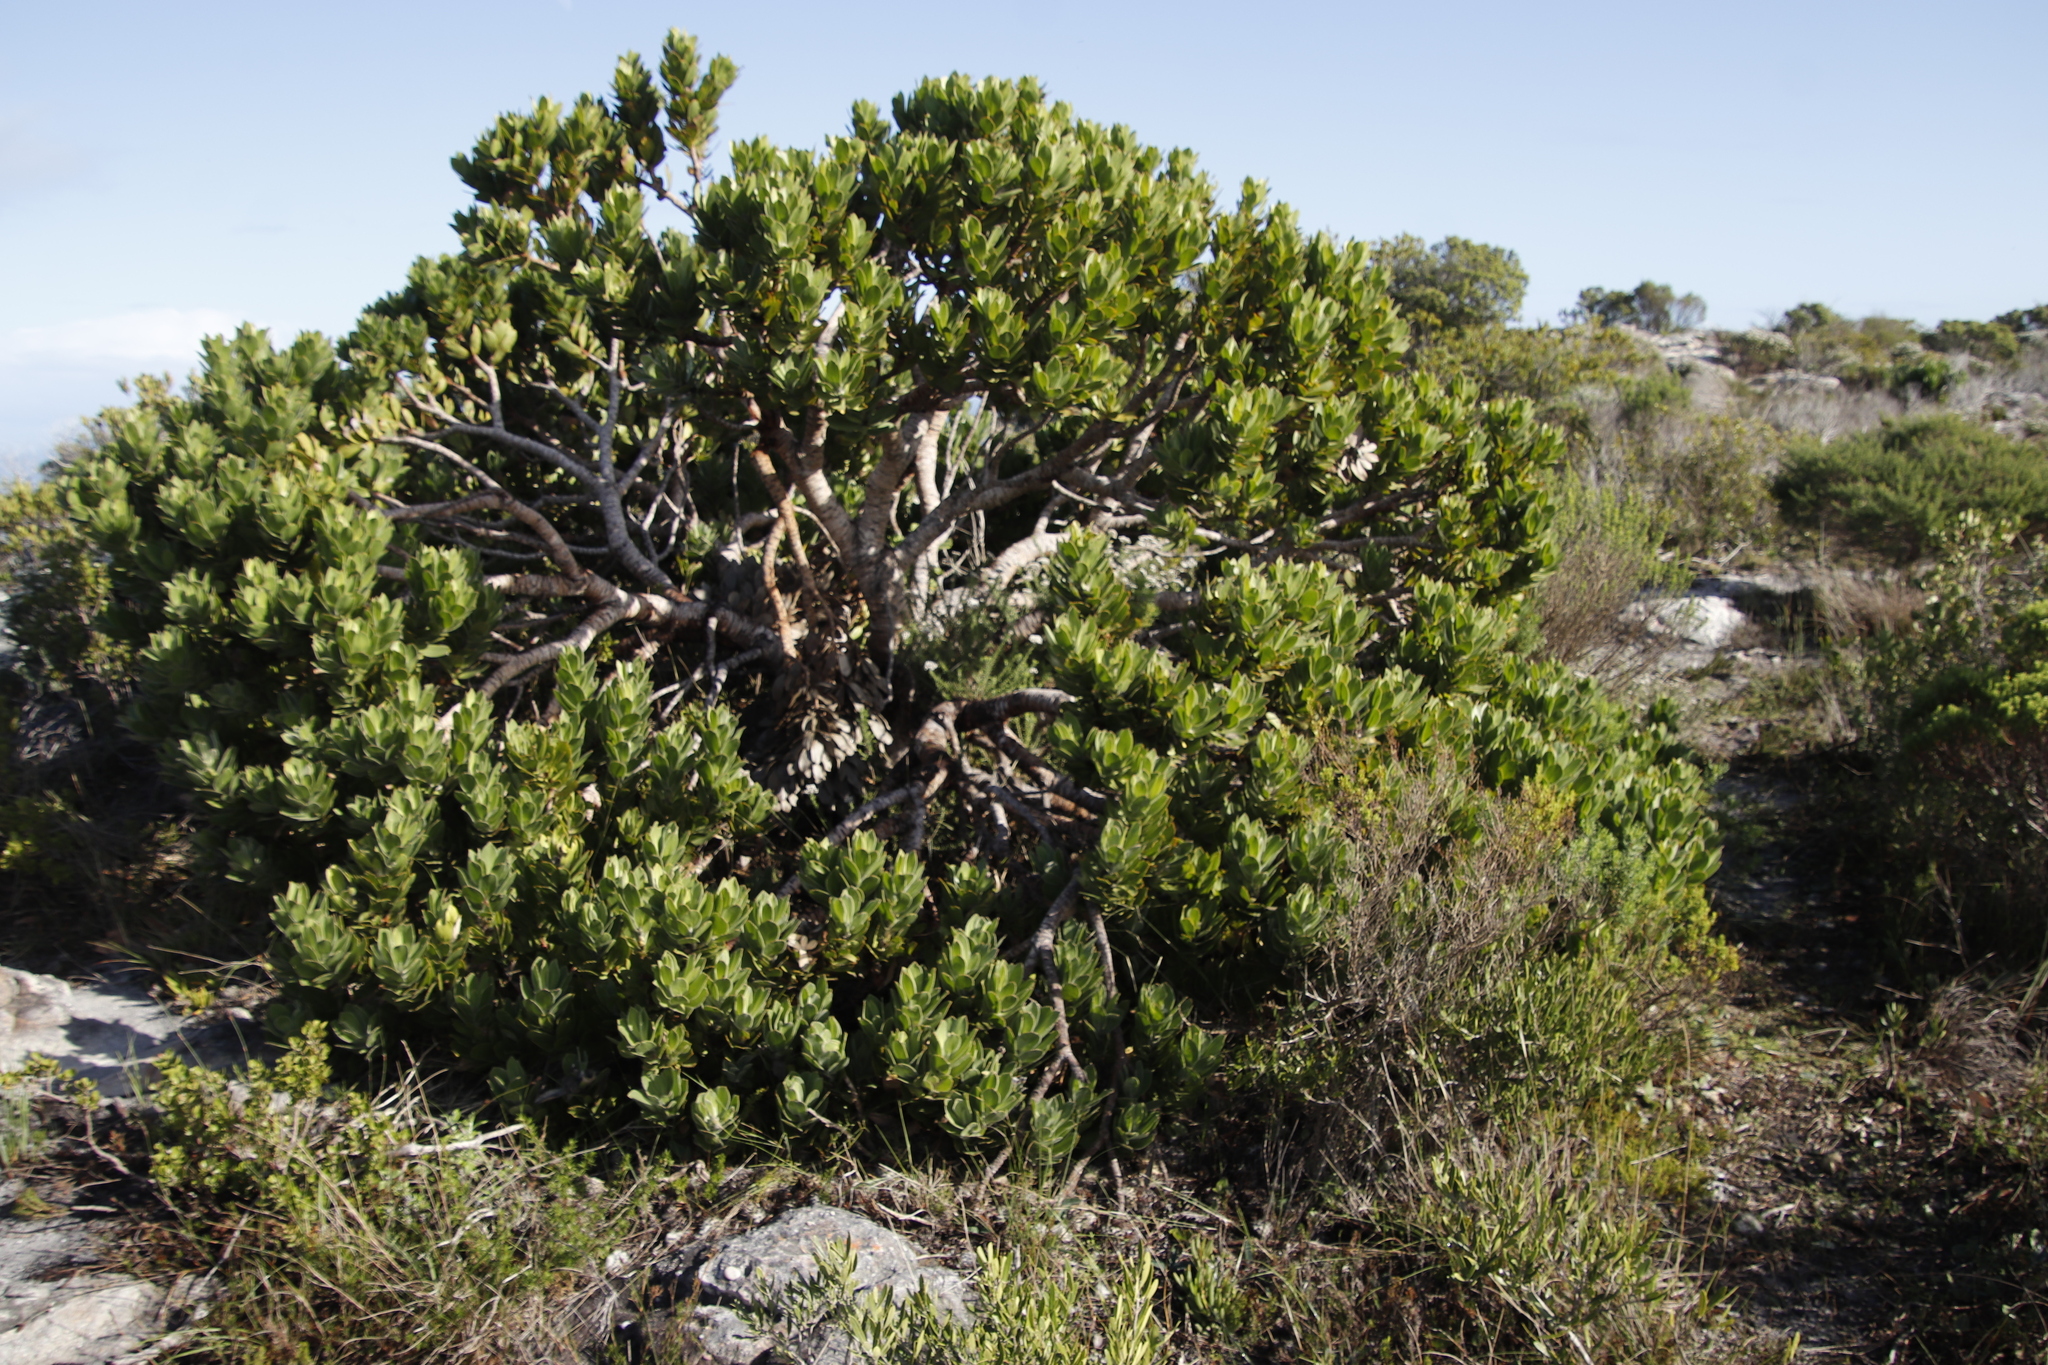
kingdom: Plantae
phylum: Tracheophyta
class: Magnoliopsida
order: Proteales
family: Proteaceae
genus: Leucospermum
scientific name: Leucospermum conocarpodendron
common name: Tree pincushion
